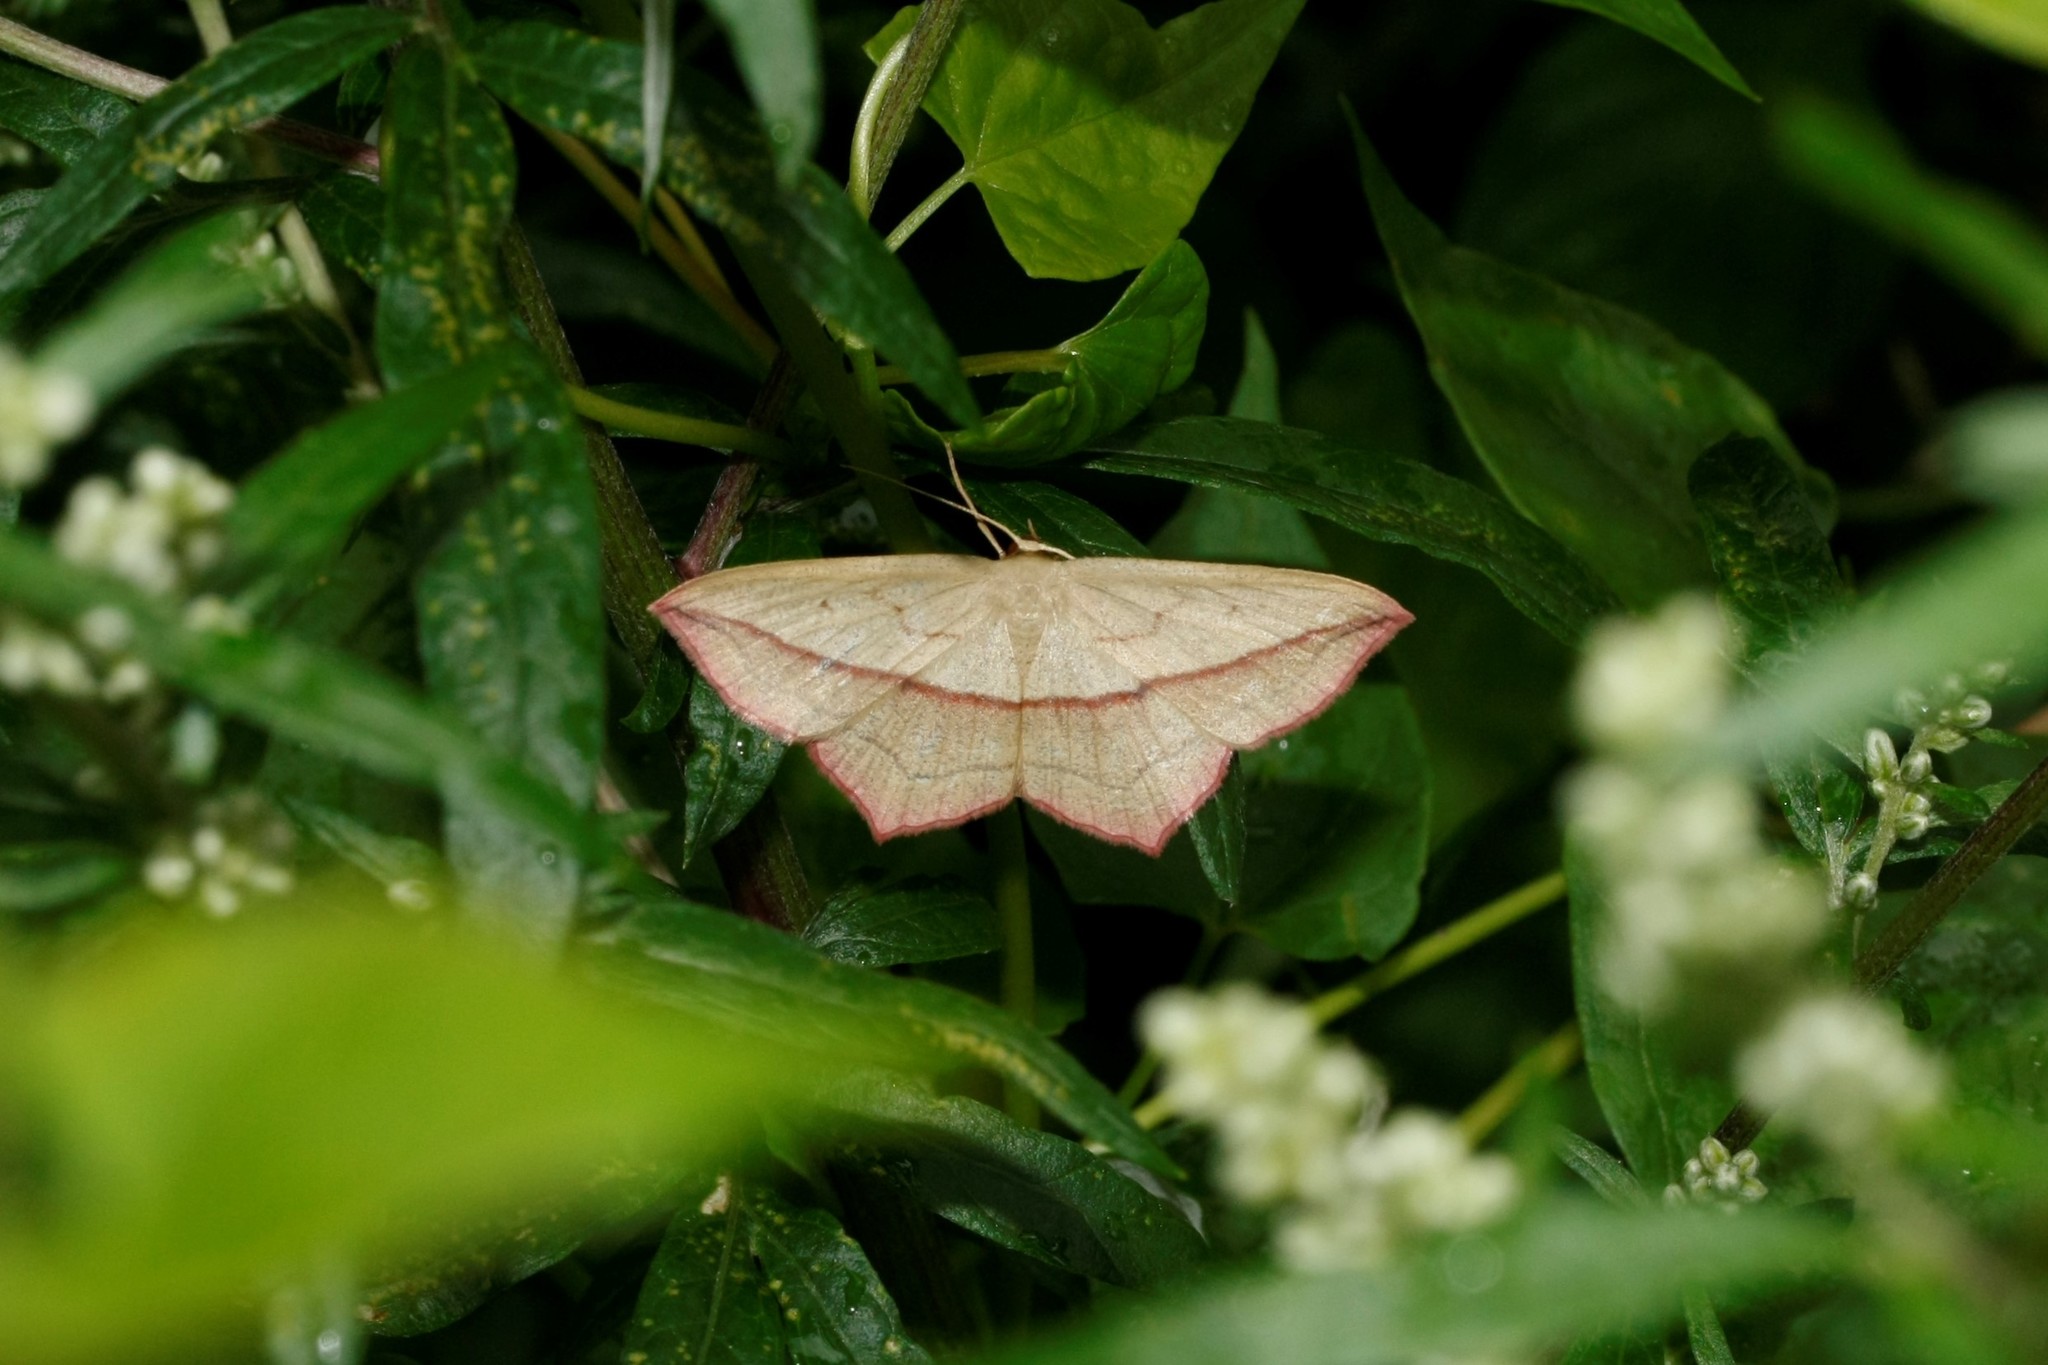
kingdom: Animalia
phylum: Arthropoda
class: Insecta
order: Lepidoptera
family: Geometridae
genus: Timandra
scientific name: Timandra comae
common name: Blood-vein
